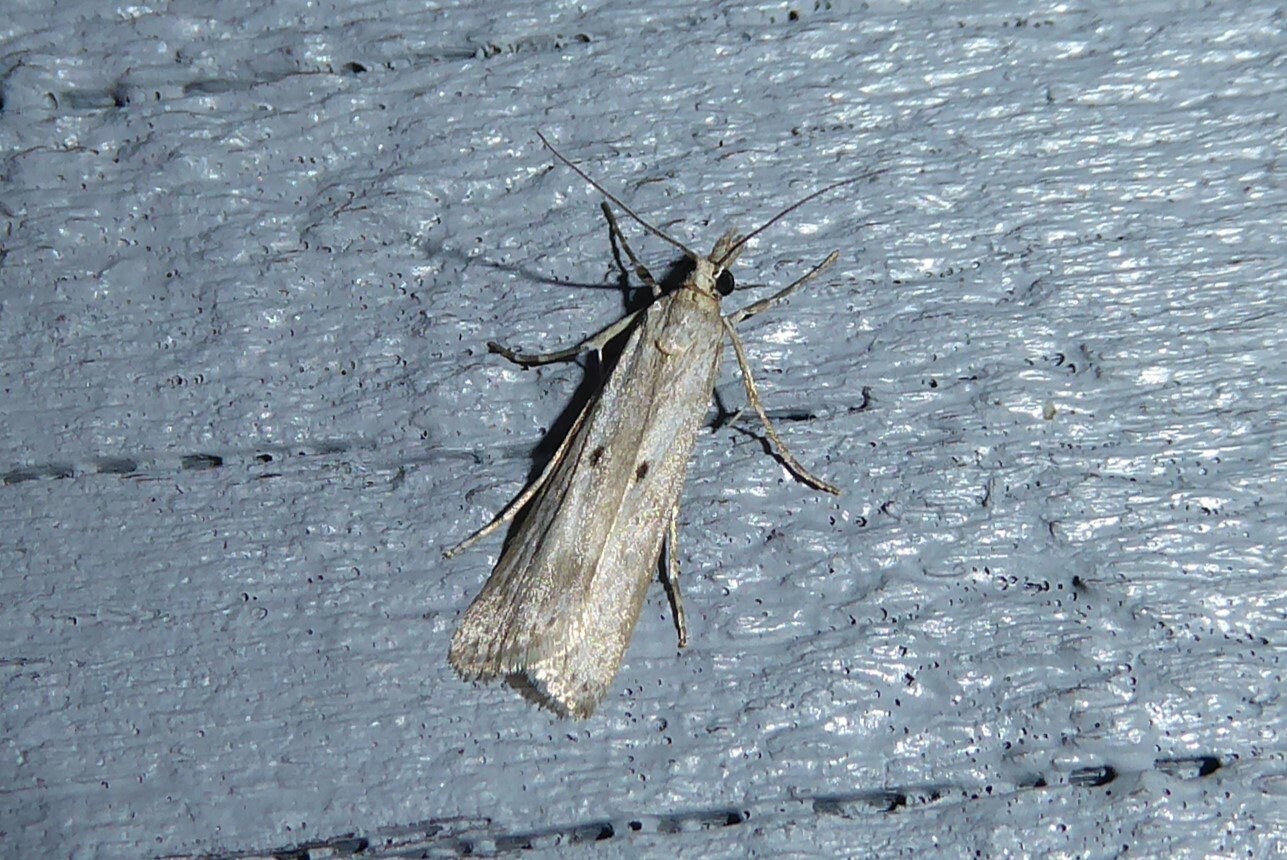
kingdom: Animalia
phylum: Arthropoda
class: Insecta
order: Lepidoptera
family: Crambidae
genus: Eudonia
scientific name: Eudonia leptalea
